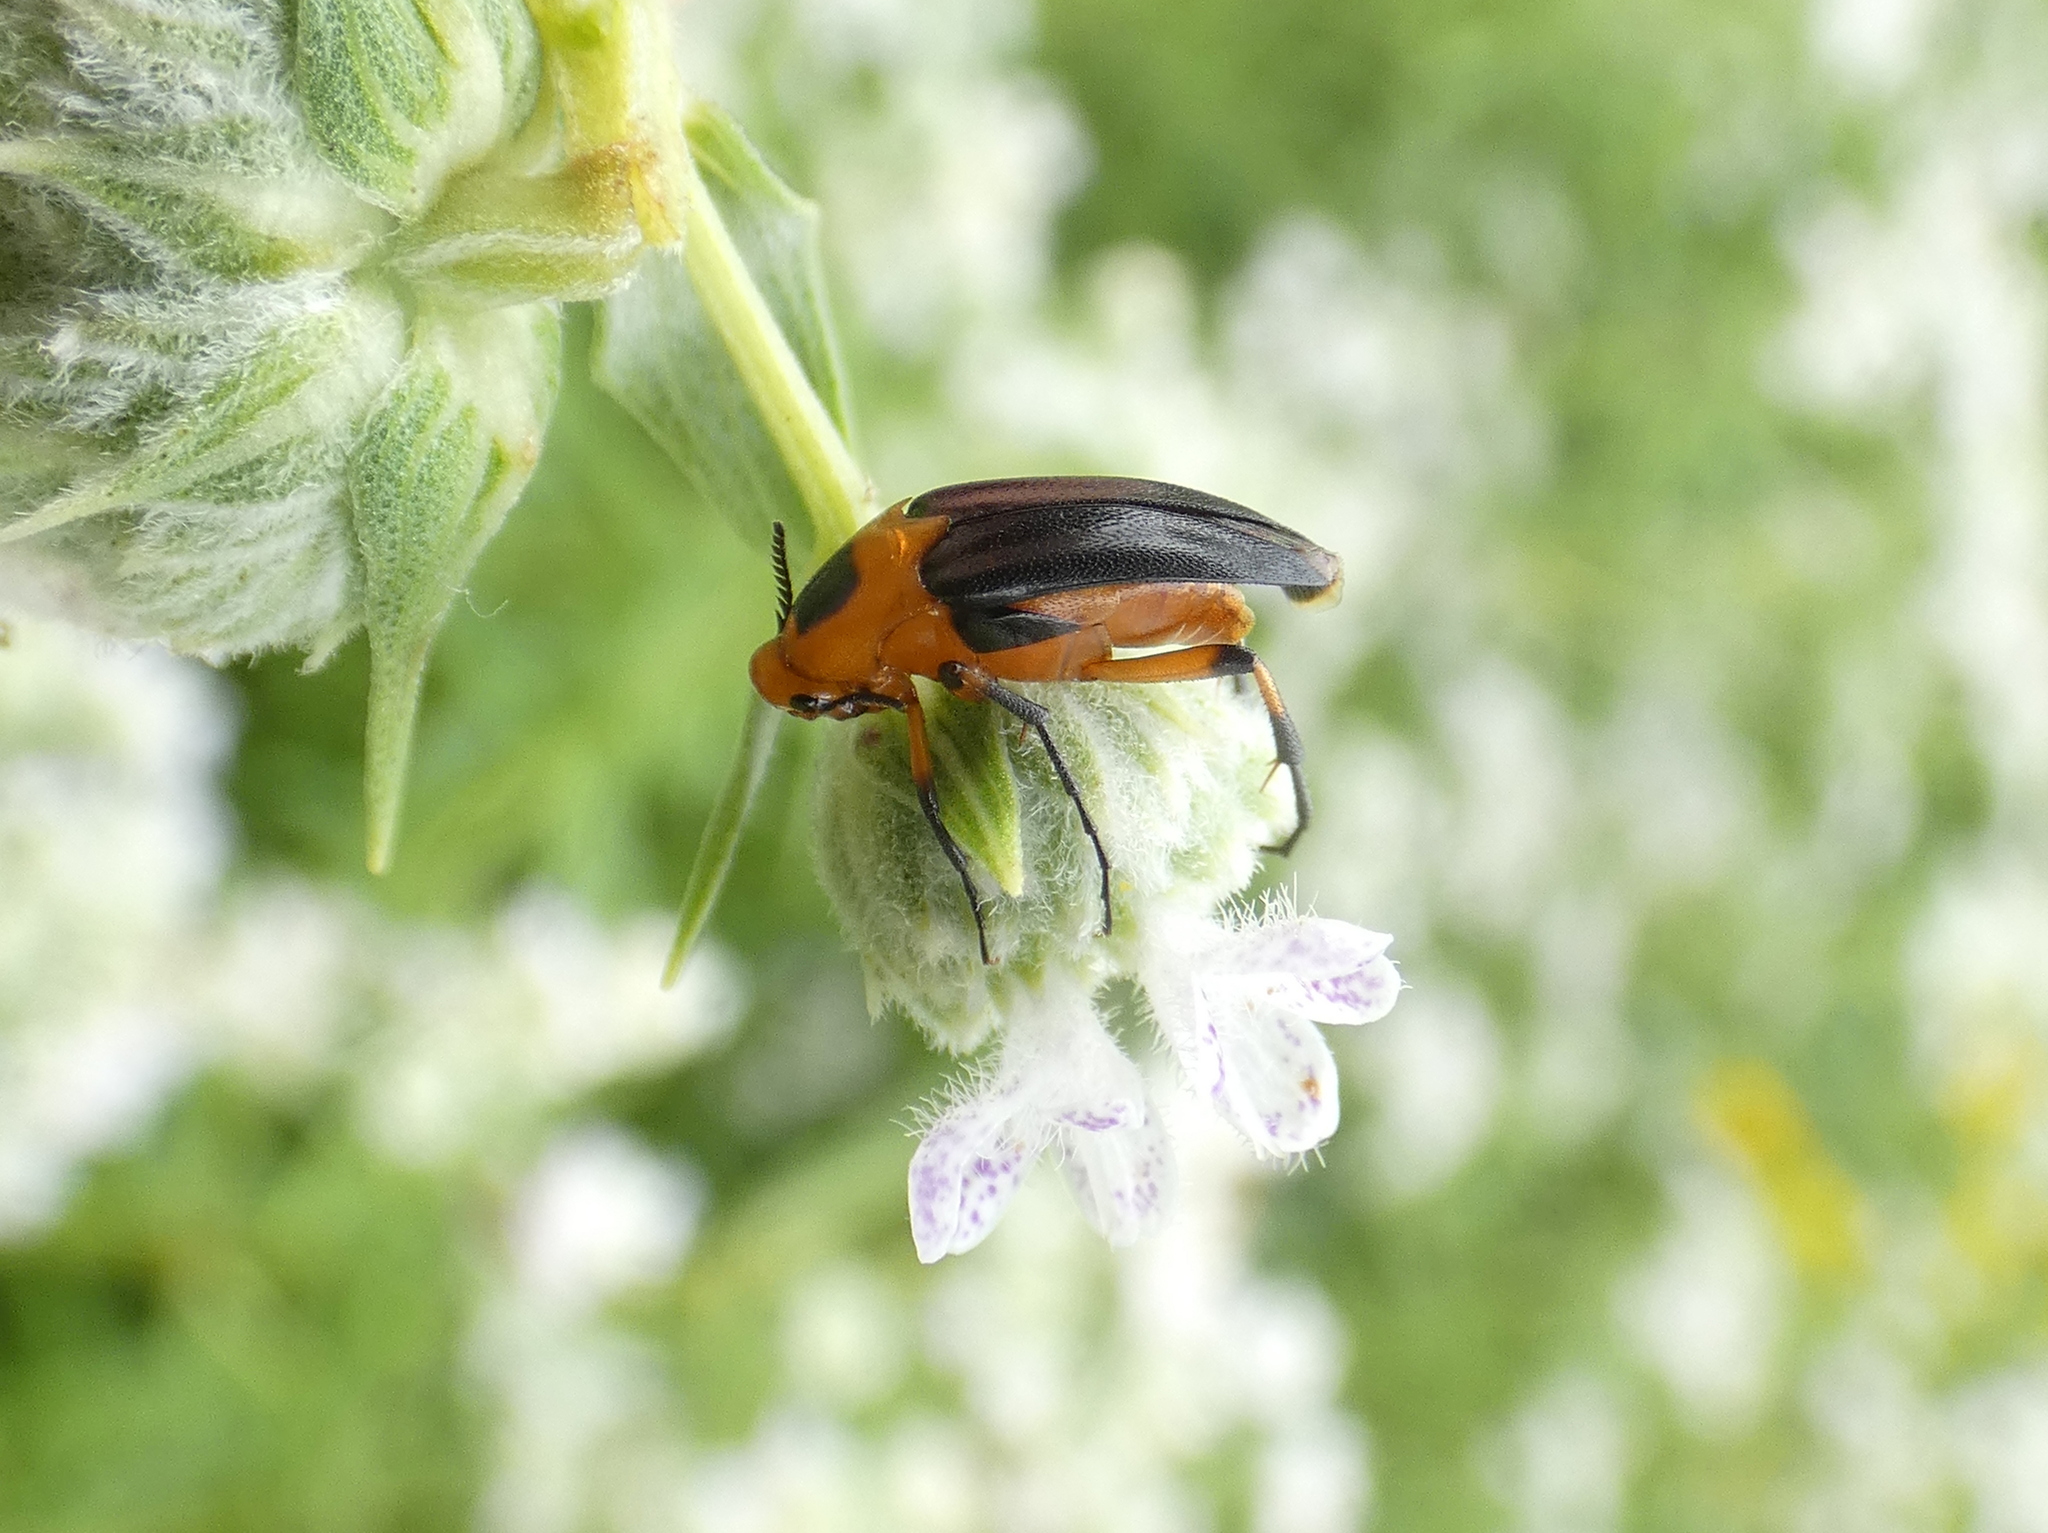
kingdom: Animalia
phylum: Arthropoda
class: Insecta
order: Coleoptera
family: Ripiphoridae
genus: Macrosiagon
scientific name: Macrosiagon limbatum
